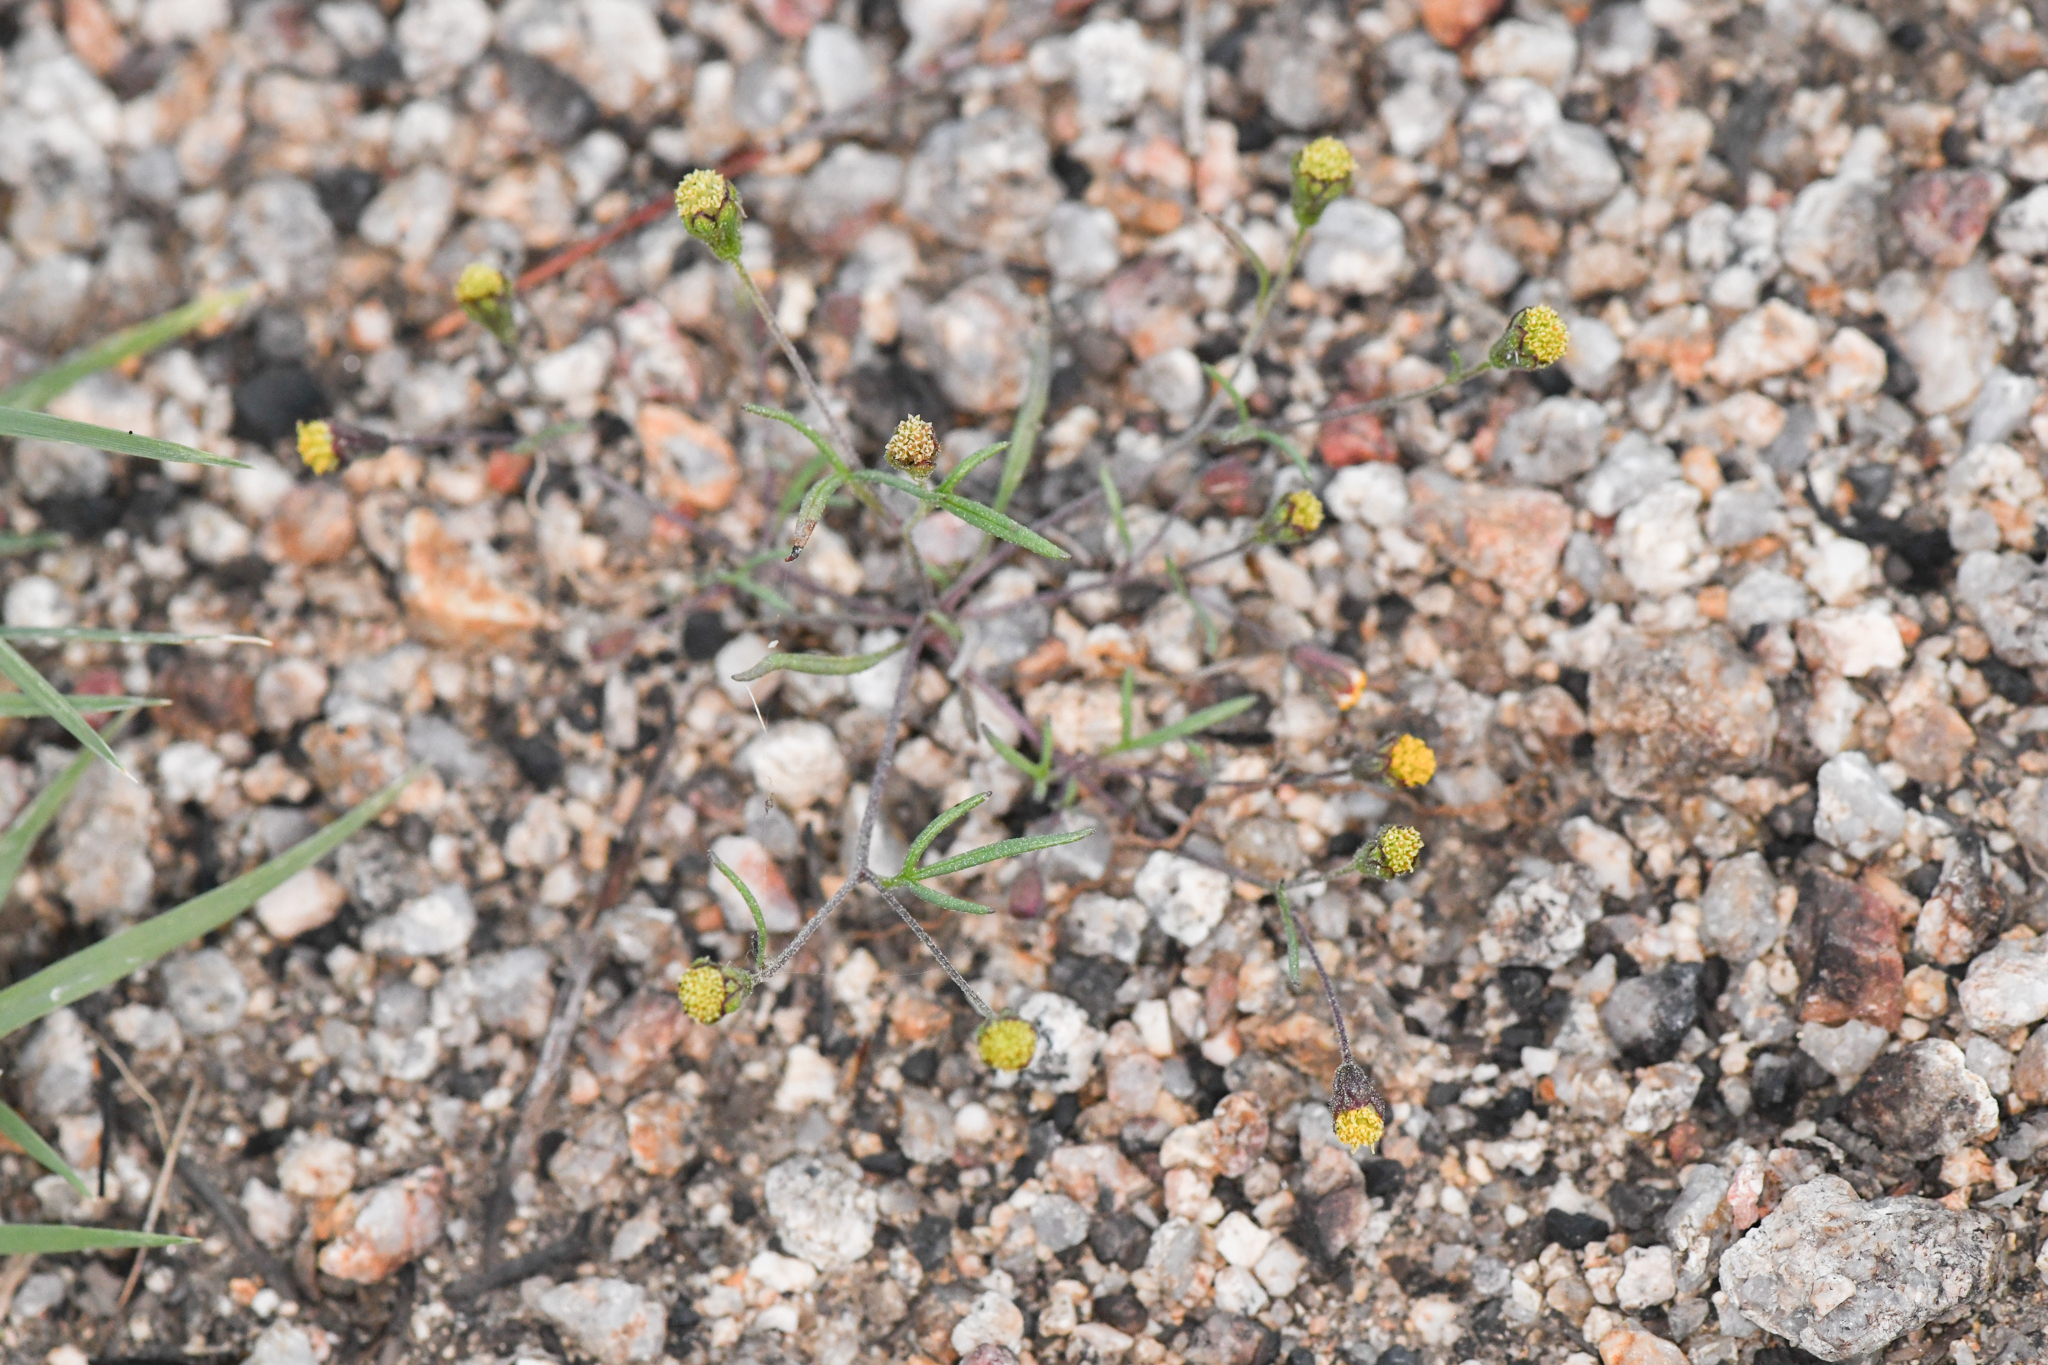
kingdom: Plantae
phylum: Tracheophyta
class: Magnoliopsida
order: Asterales
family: Asteraceae
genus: Picradeniopsis
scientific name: Picradeniopsis multiflora
